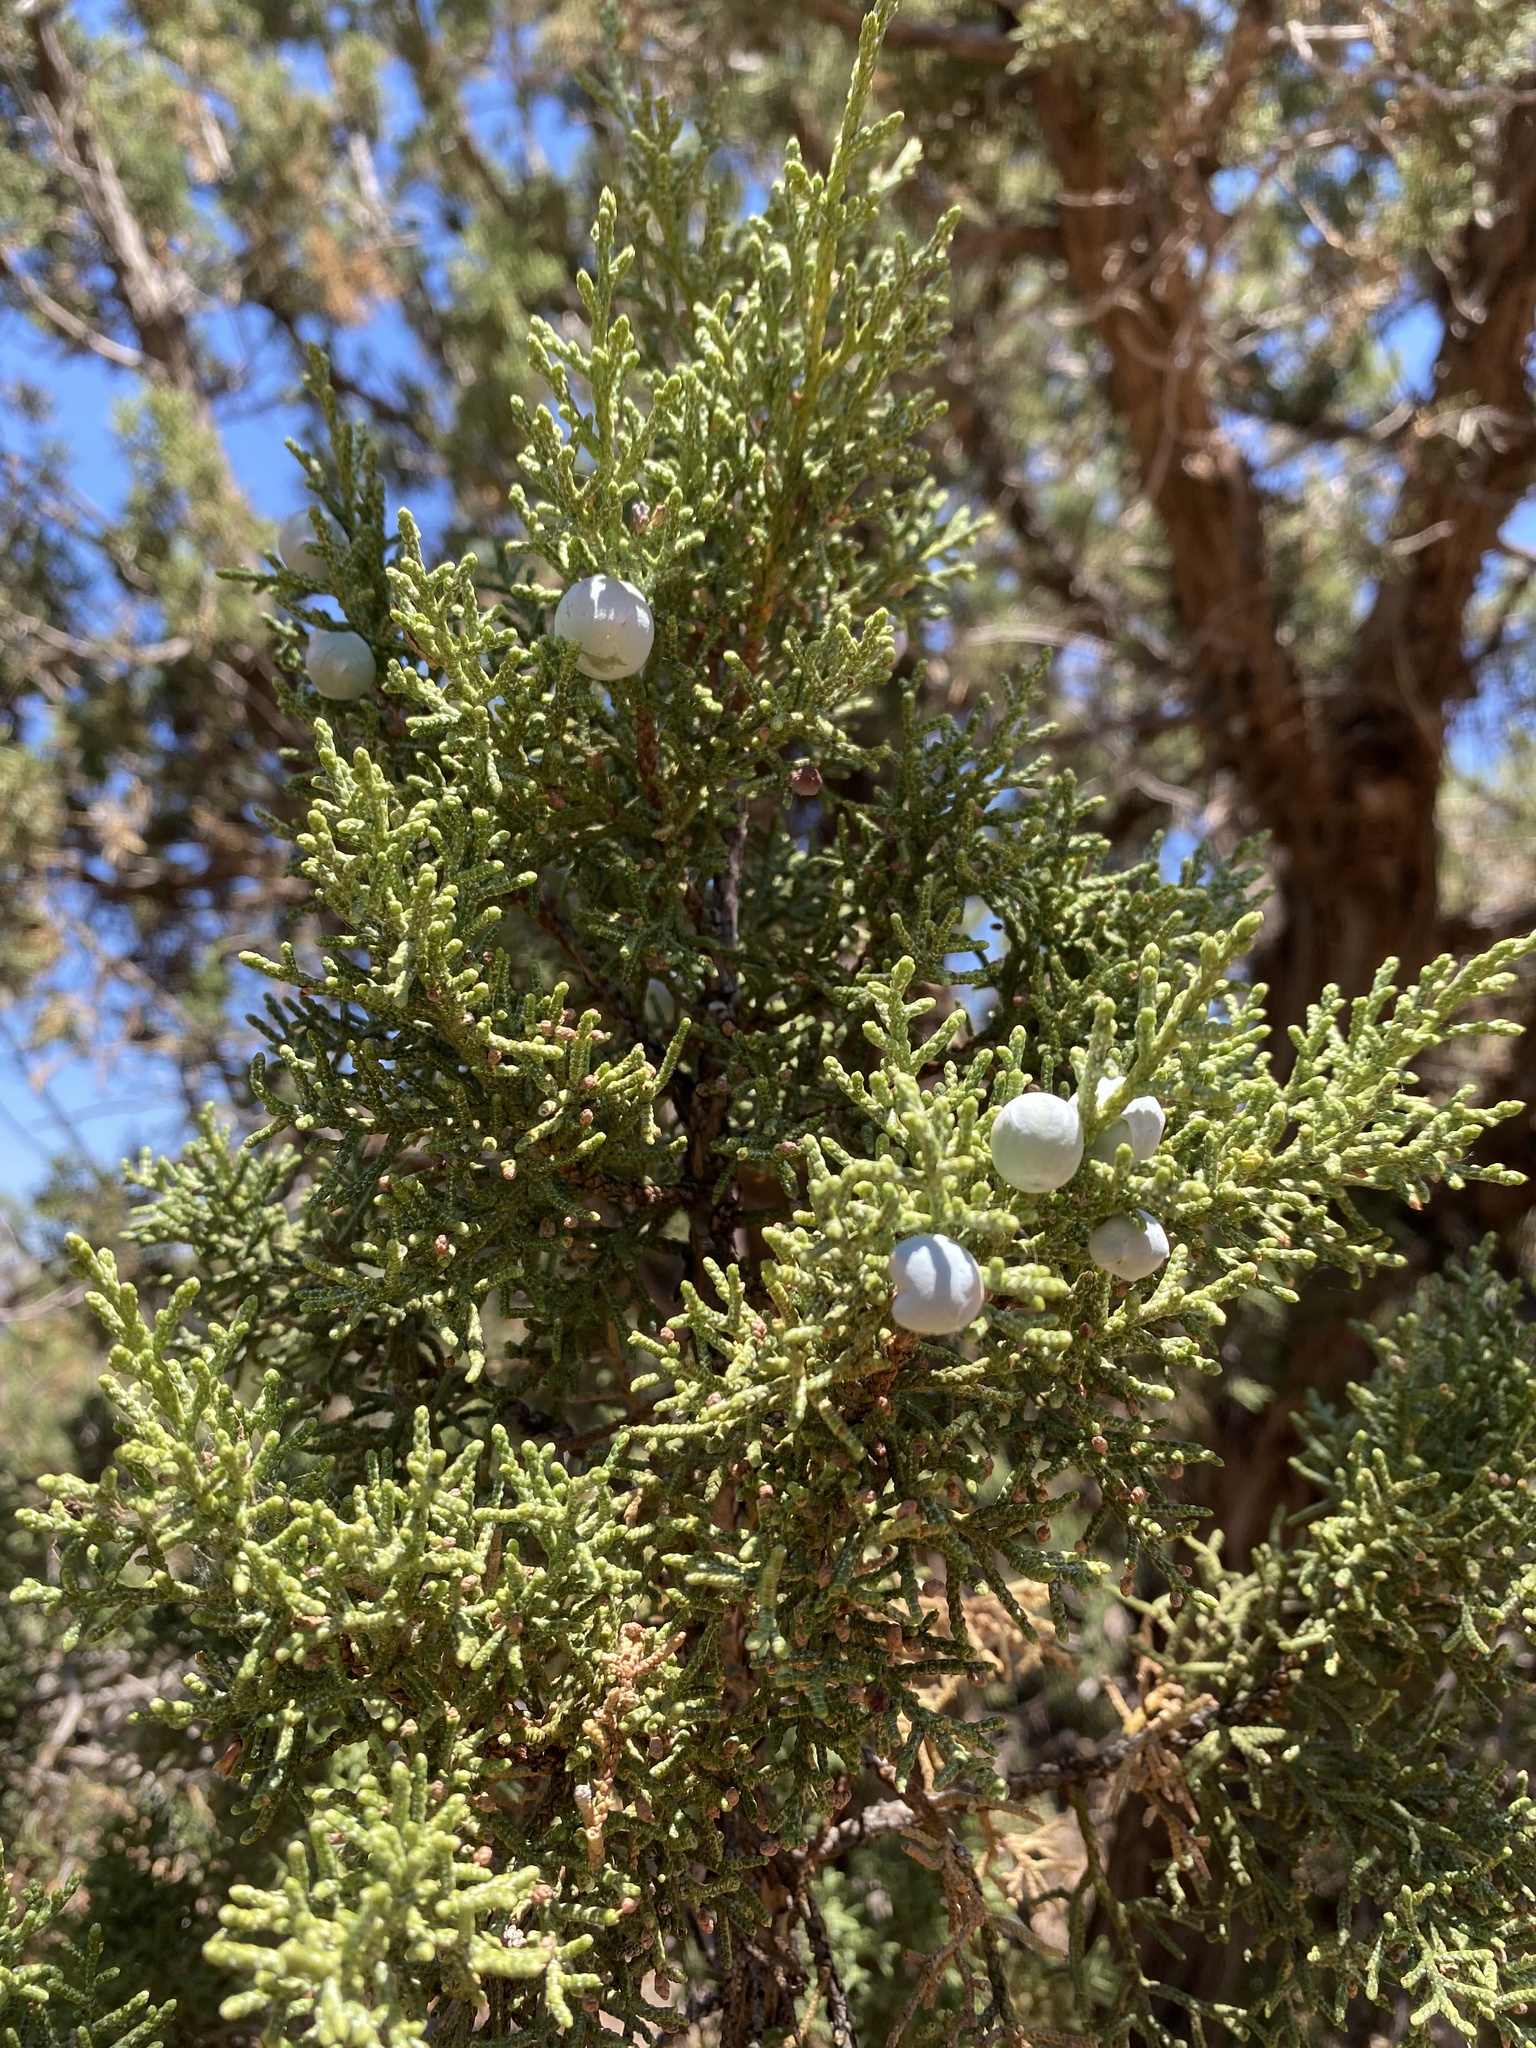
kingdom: Plantae
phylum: Tracheophyta
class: Pinopsida
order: Pinales
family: Cupressaceae
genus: Juniperus
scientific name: Juniperus osteosperma
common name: Utah juniper
